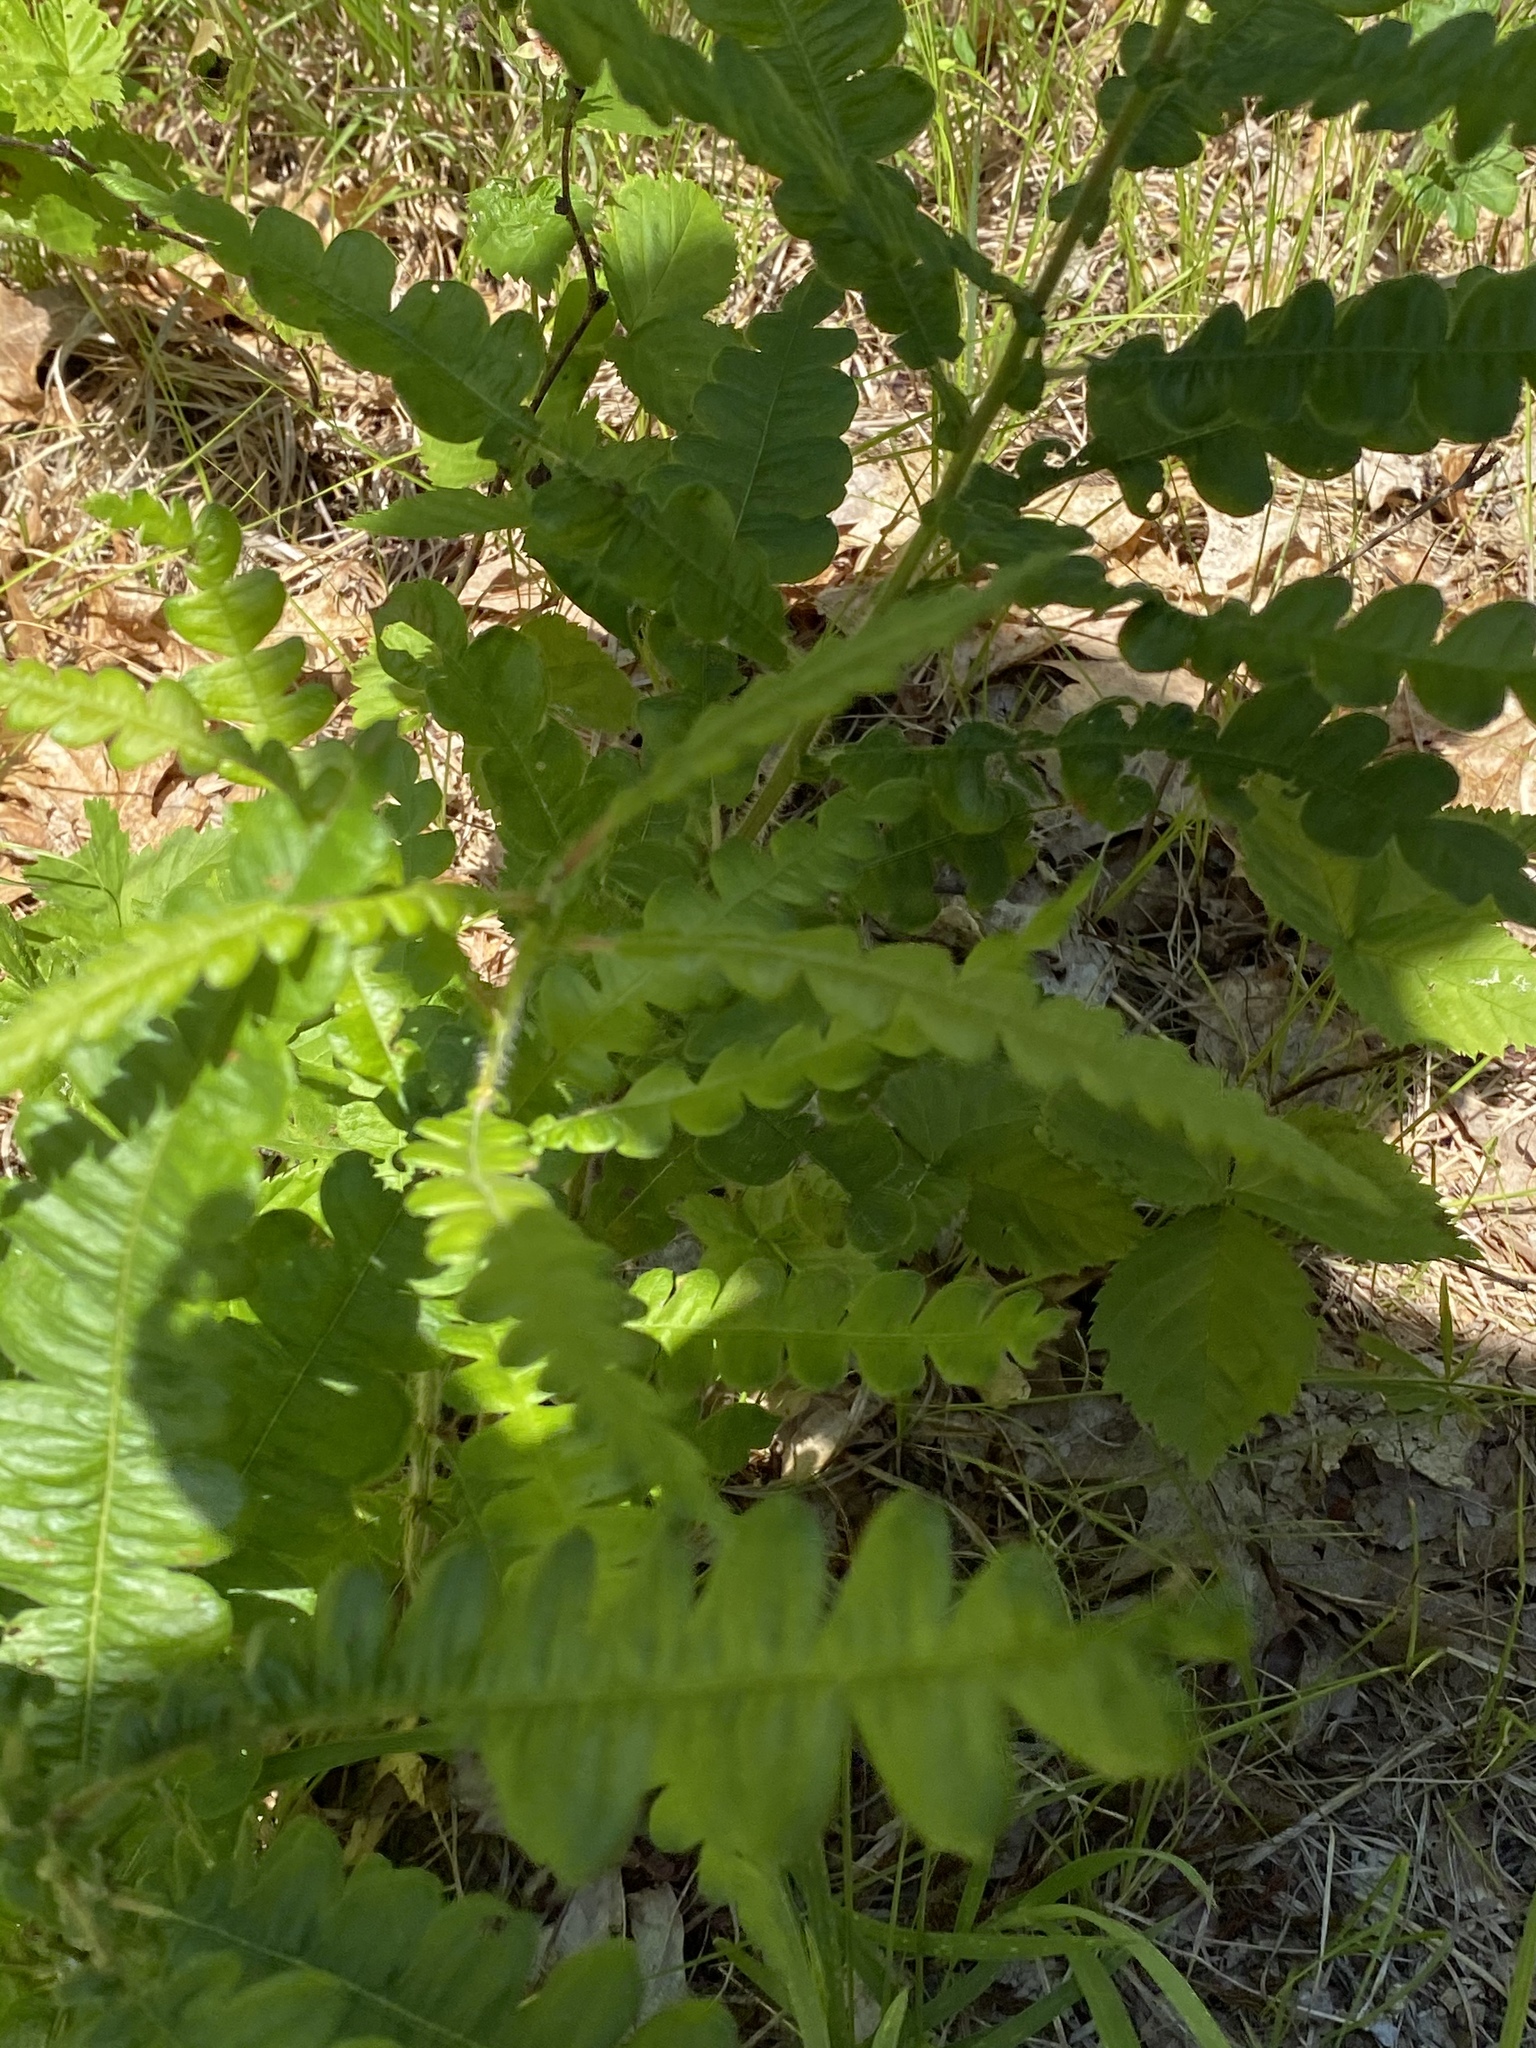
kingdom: Plantae
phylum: Tracheophyta
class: Magnoliopsida
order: Fagales
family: Myricaceae
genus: Comptonia
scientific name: Comptonia peregrina
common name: Sweet-fern
